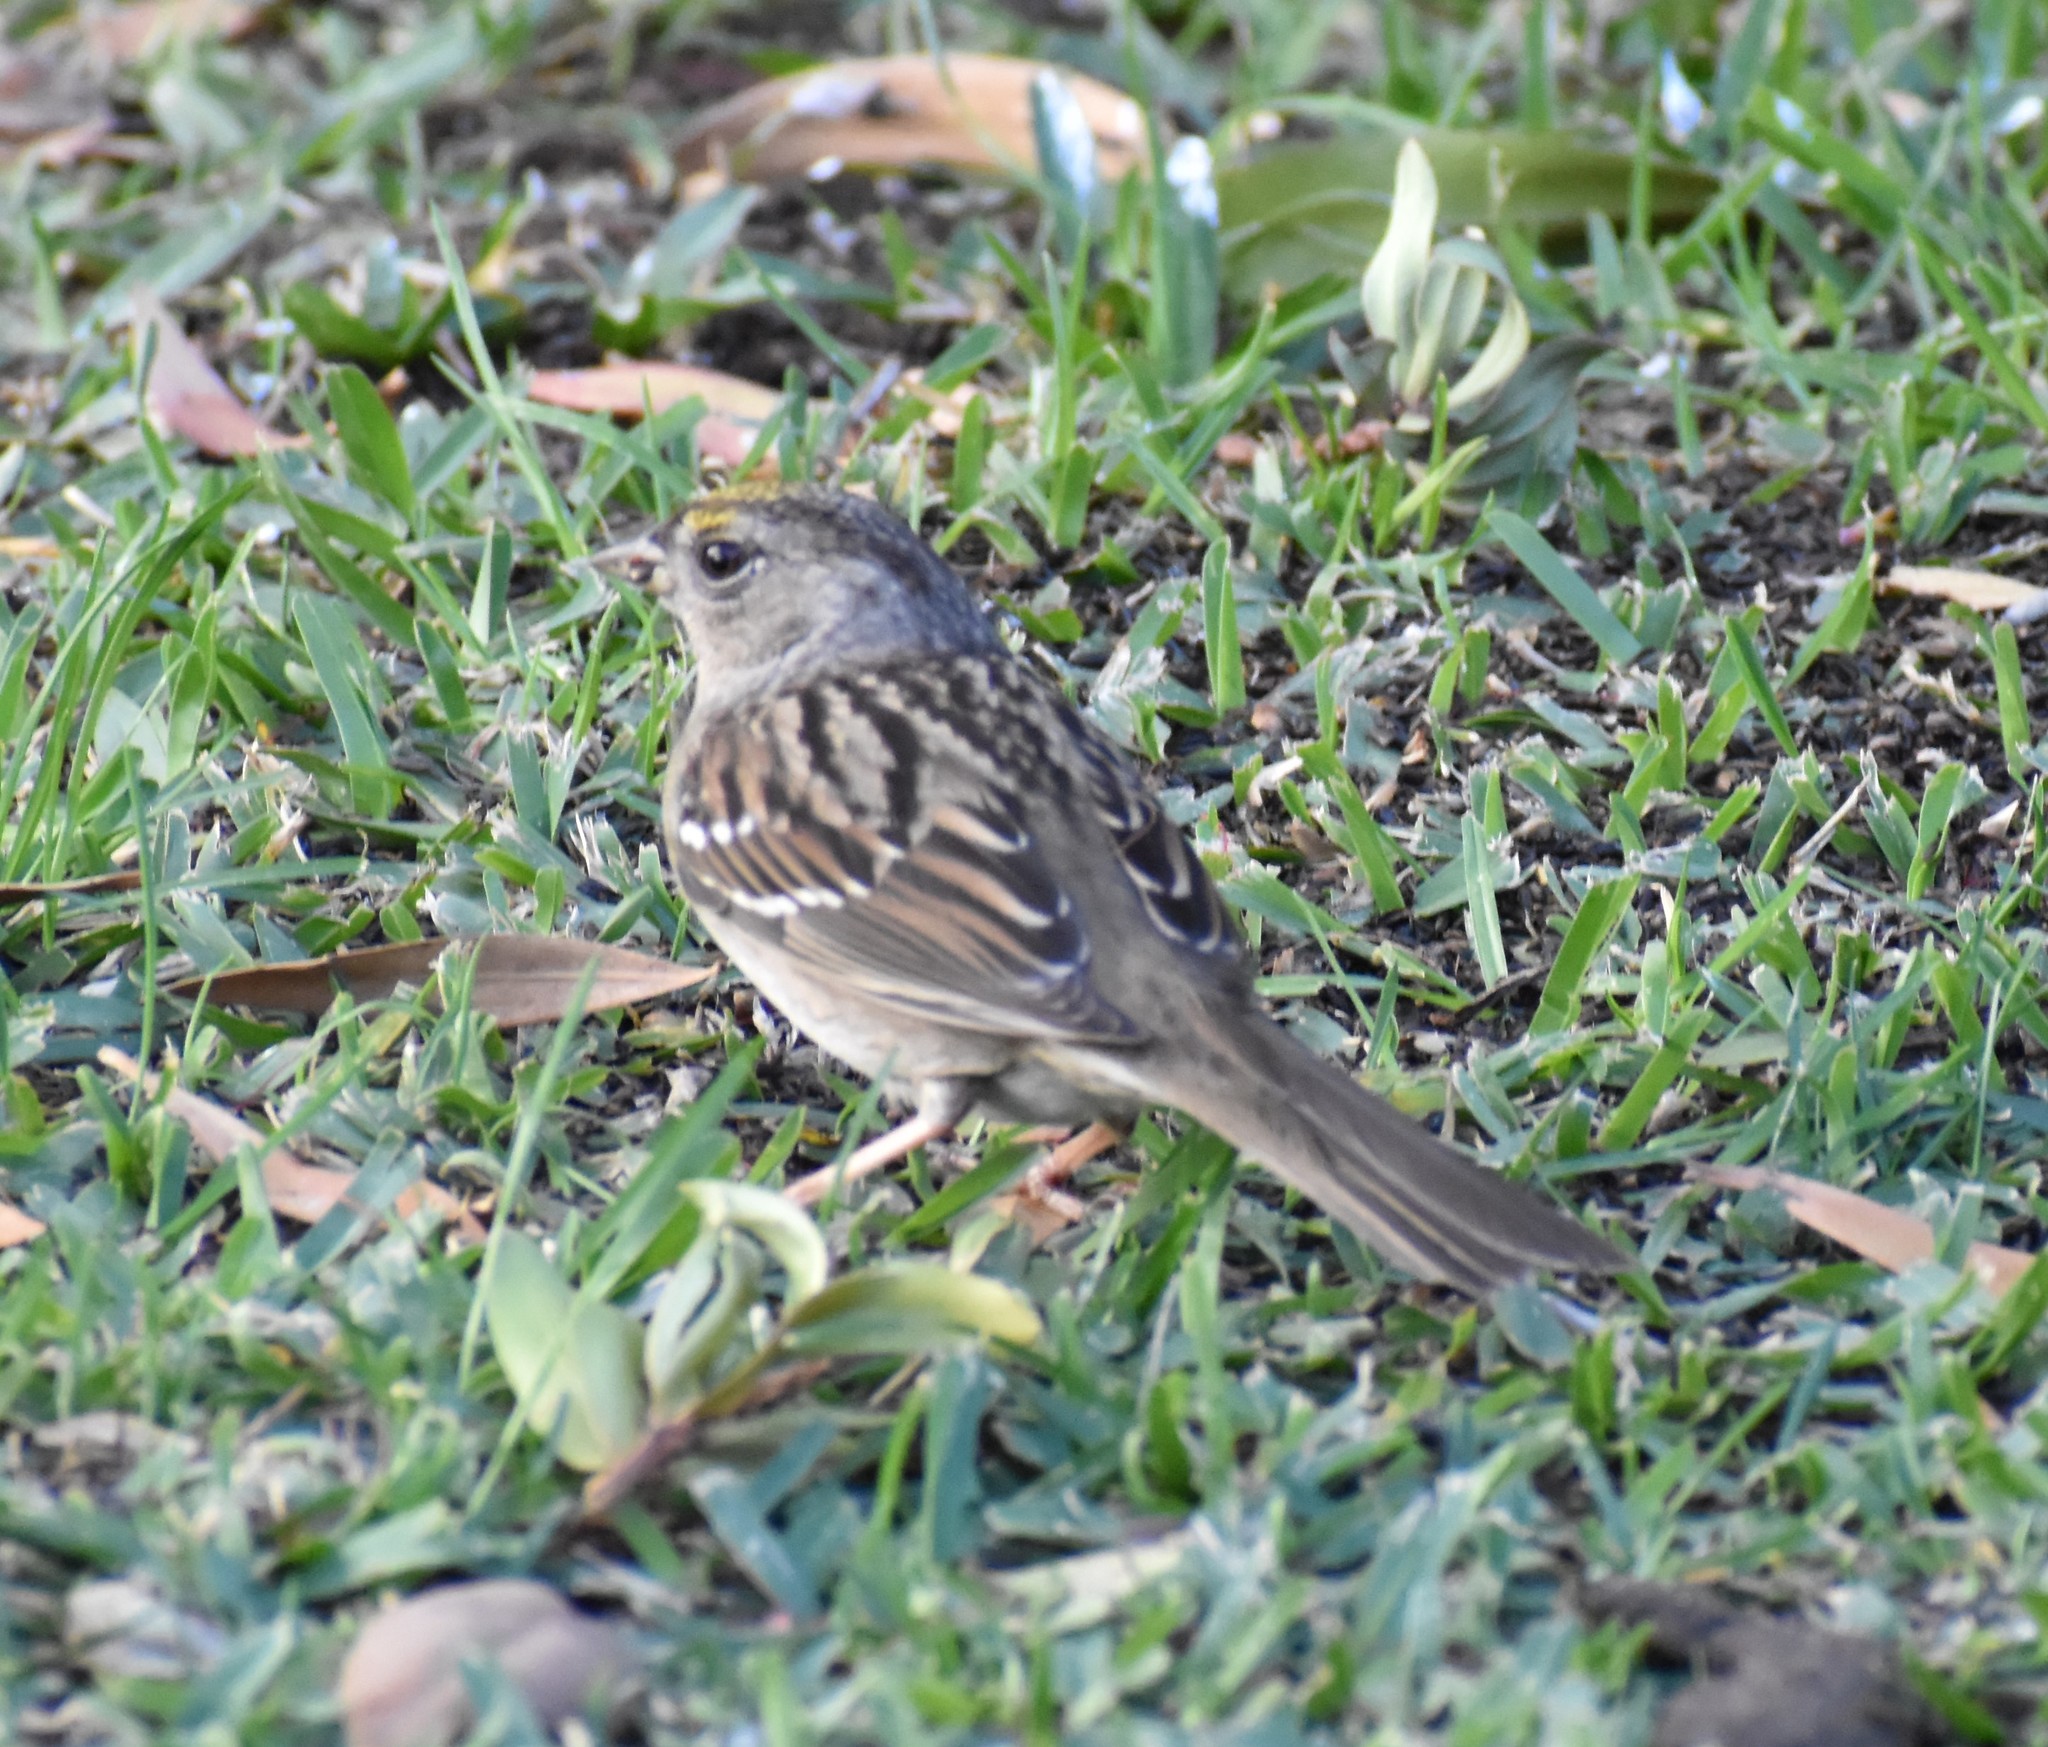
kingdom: Animalia
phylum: Chordata
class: Aves
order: Passeriformes
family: Passerellidae
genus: Zonotrichia
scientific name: Zonotrichia atricapilla
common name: Golden-crowned sparrow
